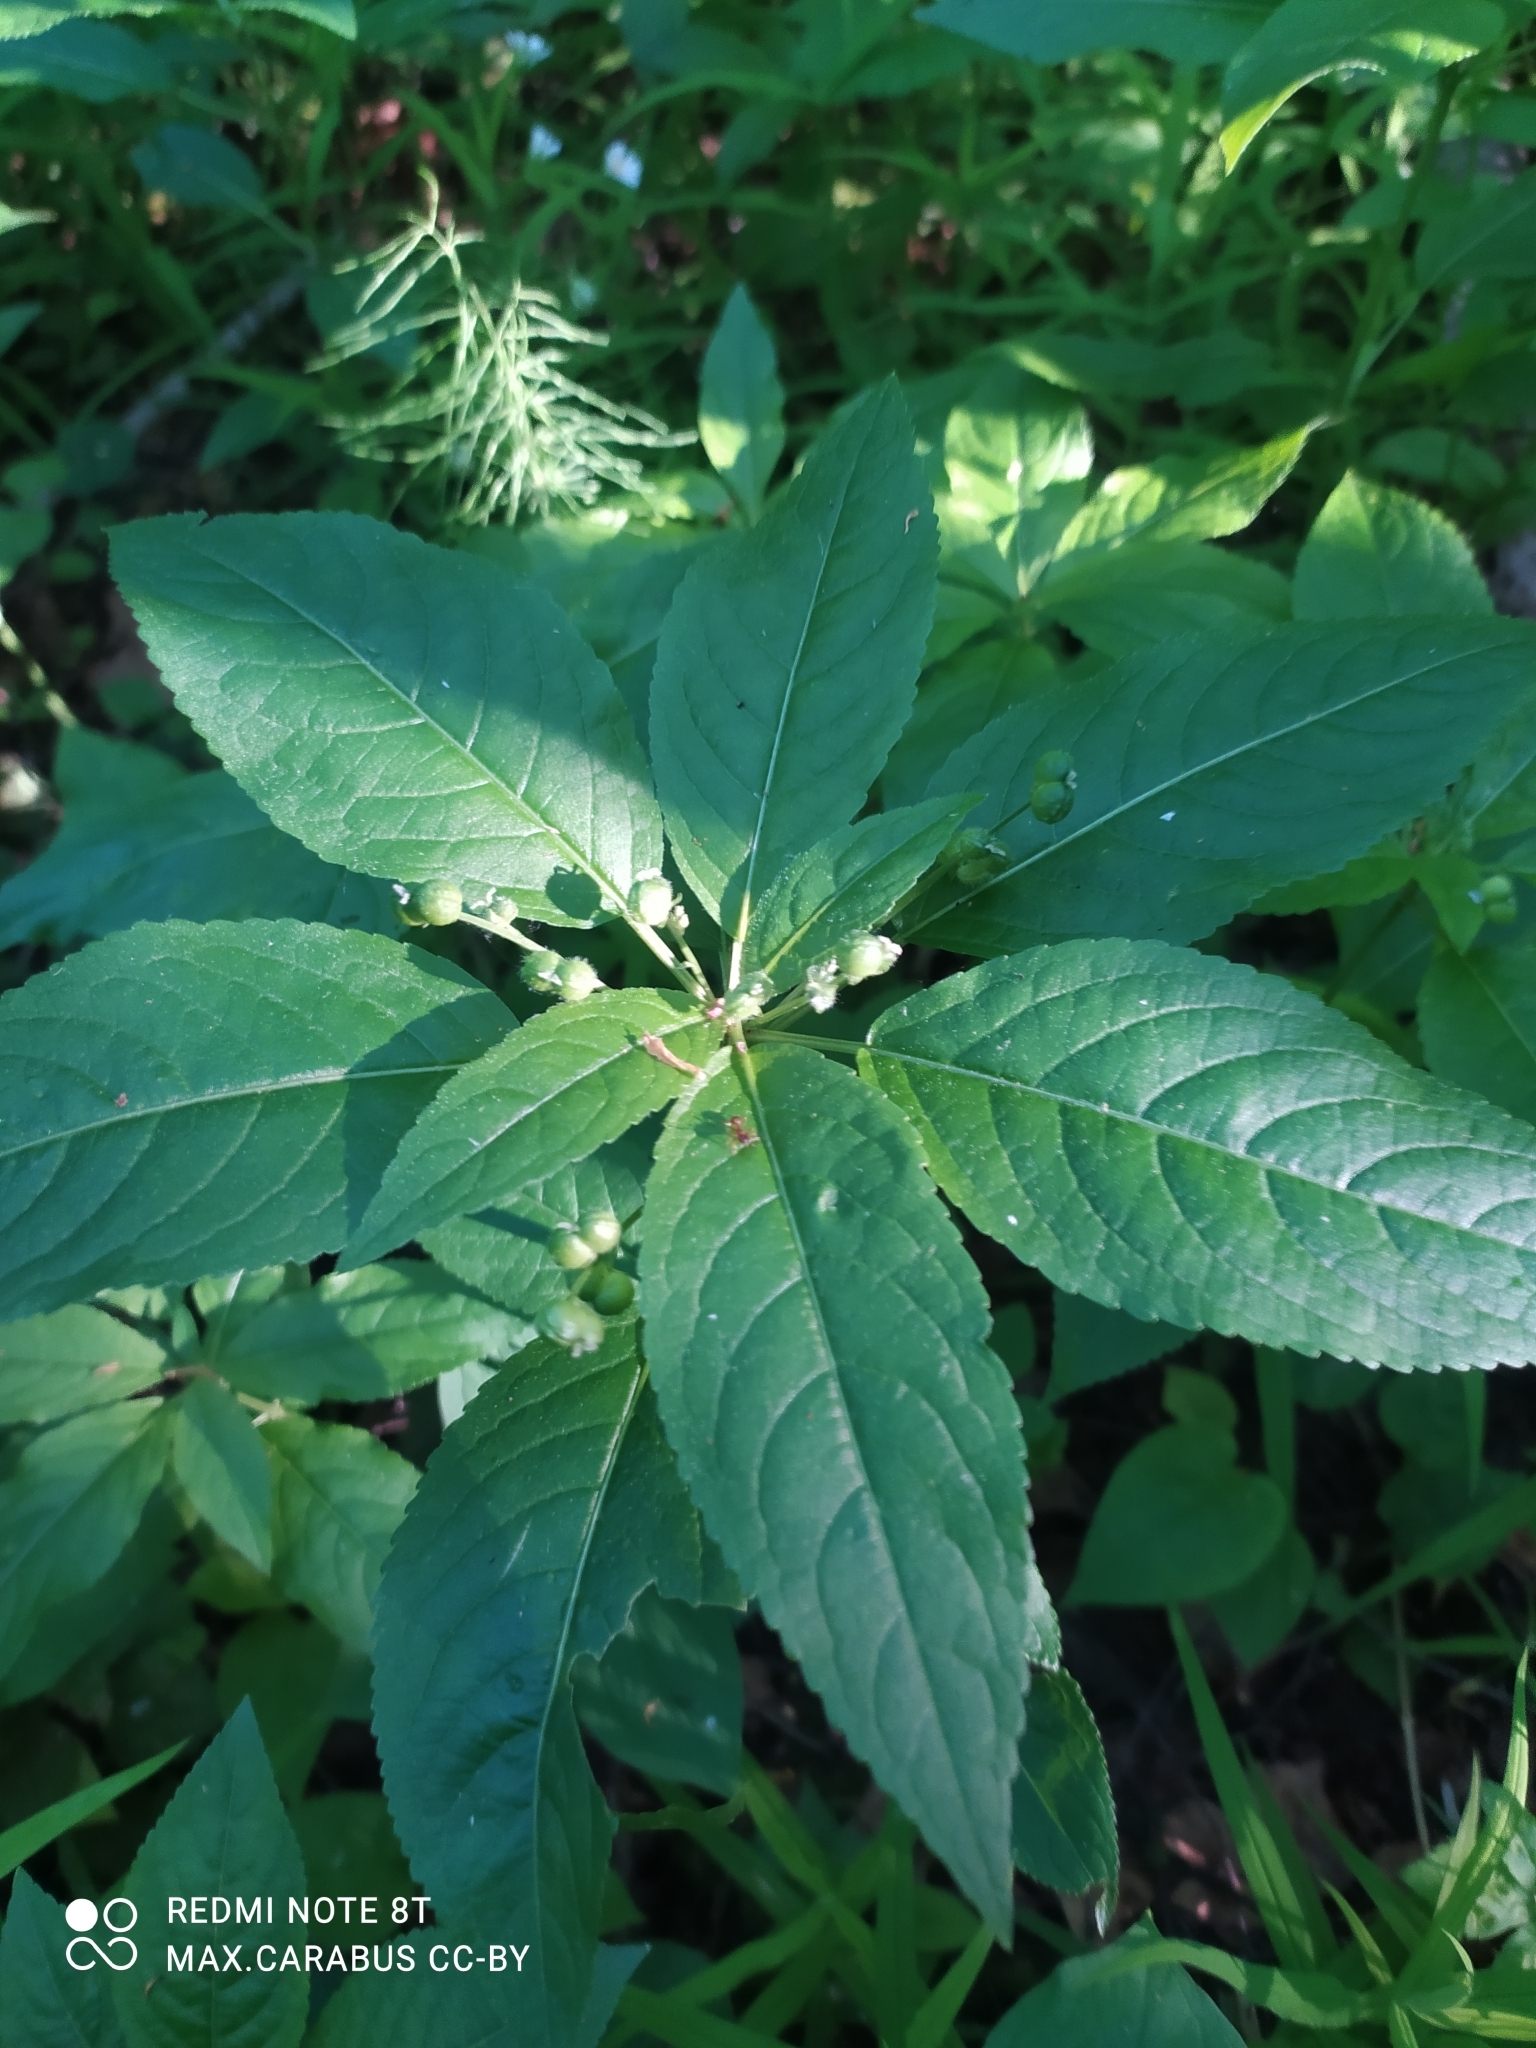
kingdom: Plantae
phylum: Tracheophyta
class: Magnoliopsida
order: Malpighiales
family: Euphorbiaceae
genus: Mercurialis
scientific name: Mercurialis perennis
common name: Dog mercury
